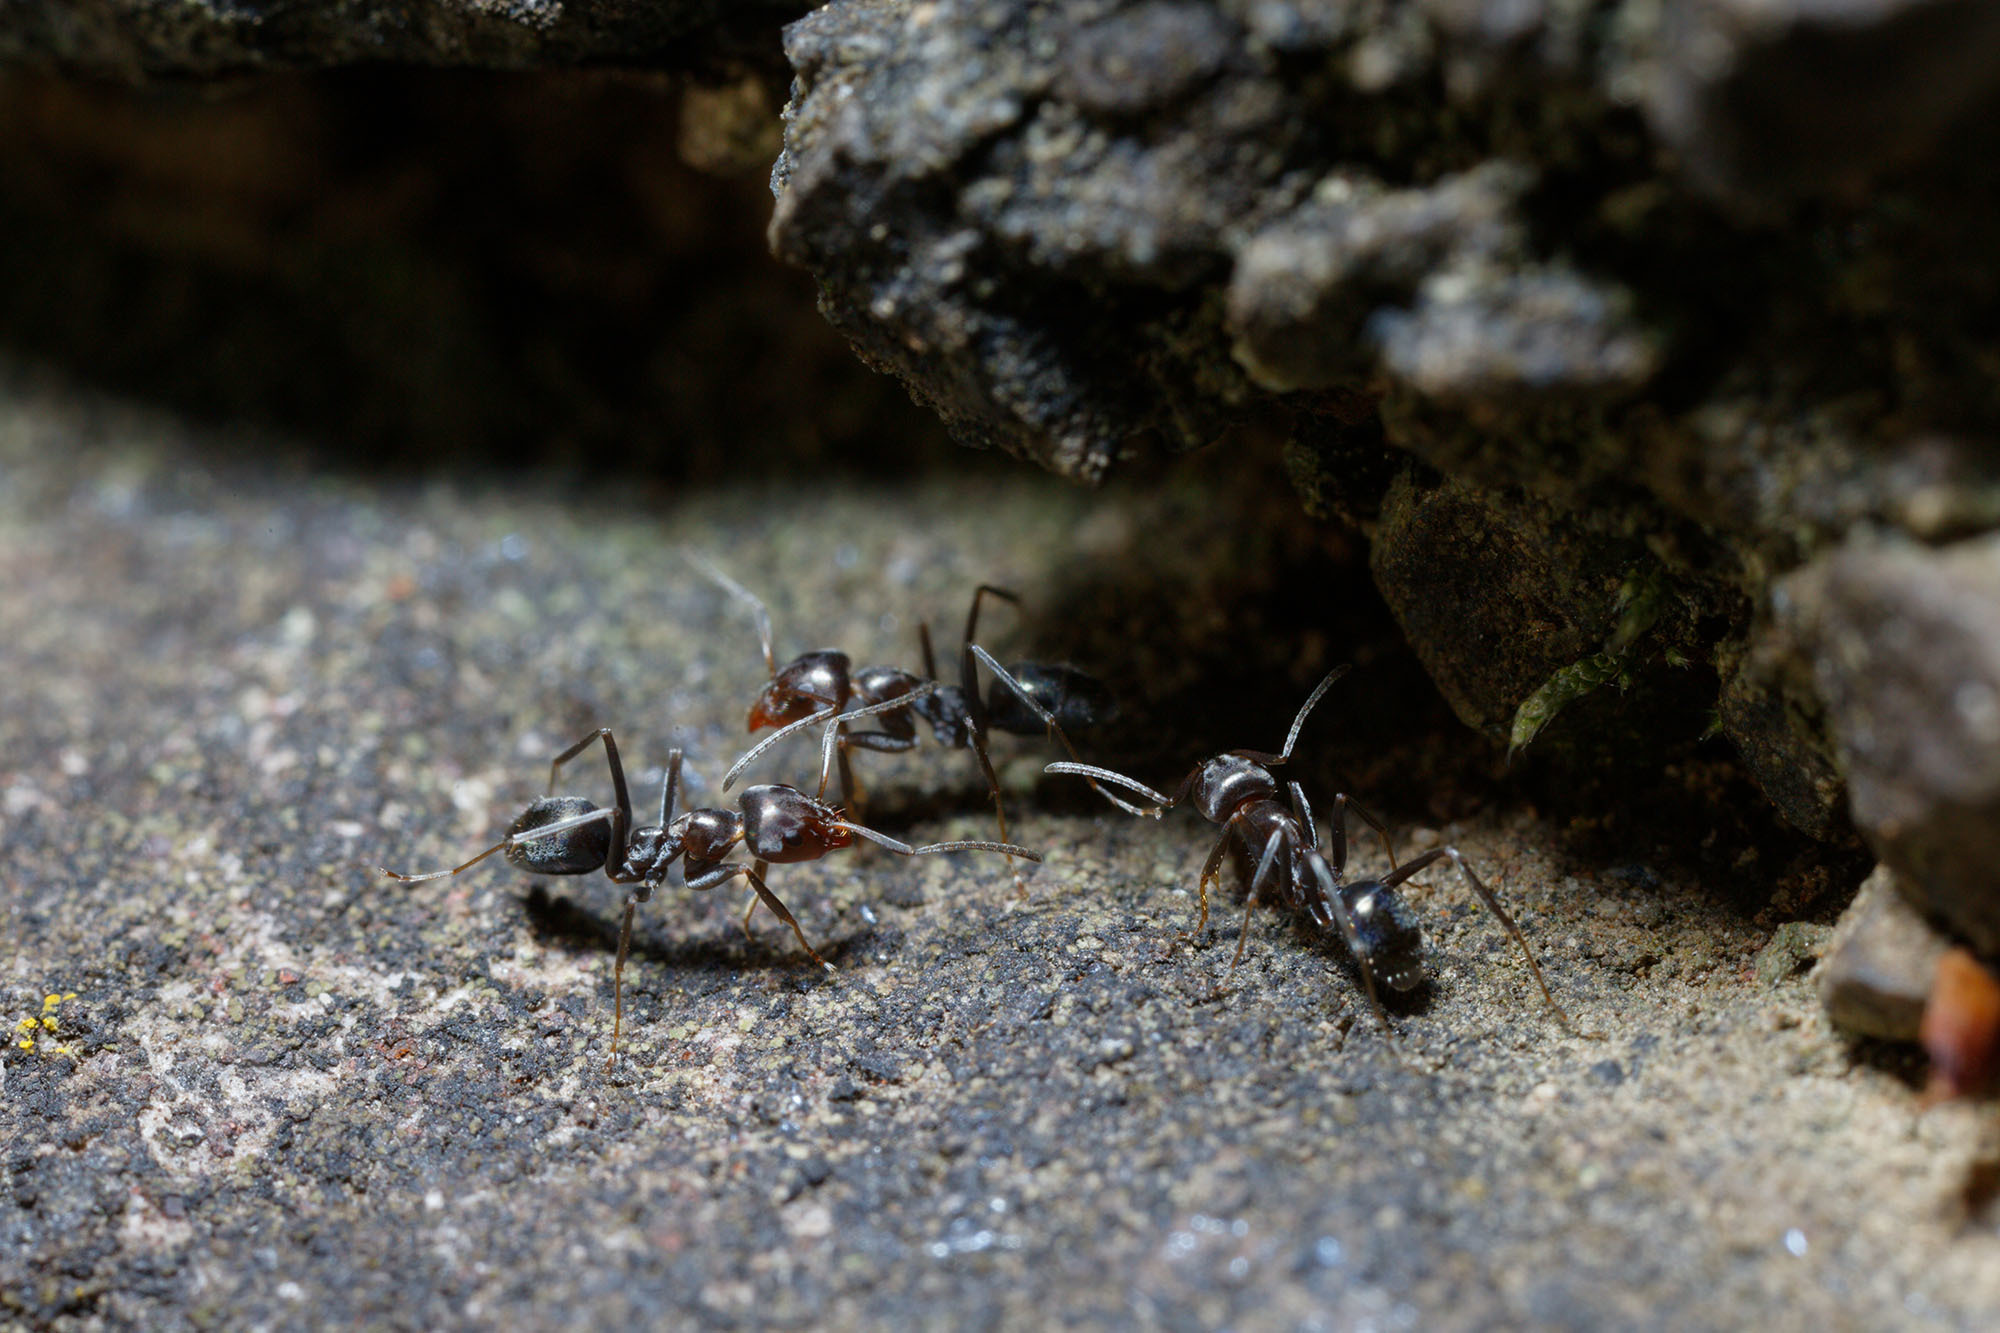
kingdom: Animalia
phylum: Arthropoda
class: Insecta
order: Hymenoptera
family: Formicidae
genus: Iridomyrmex
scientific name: Iridomyrmex suchieri
